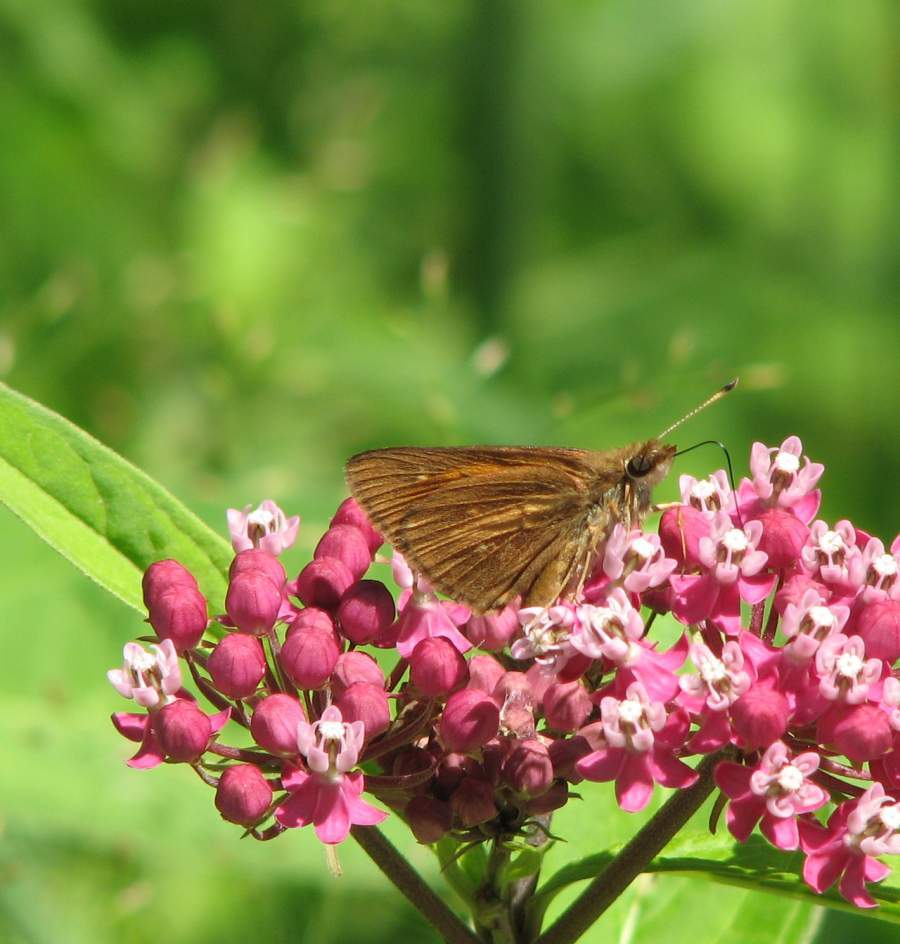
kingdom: Animalia
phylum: Arthropoda
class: Insecta
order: Lepidoptera
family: Hesperiidae
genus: Poanes
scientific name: Poanes viator
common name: Broad-winged skipper
